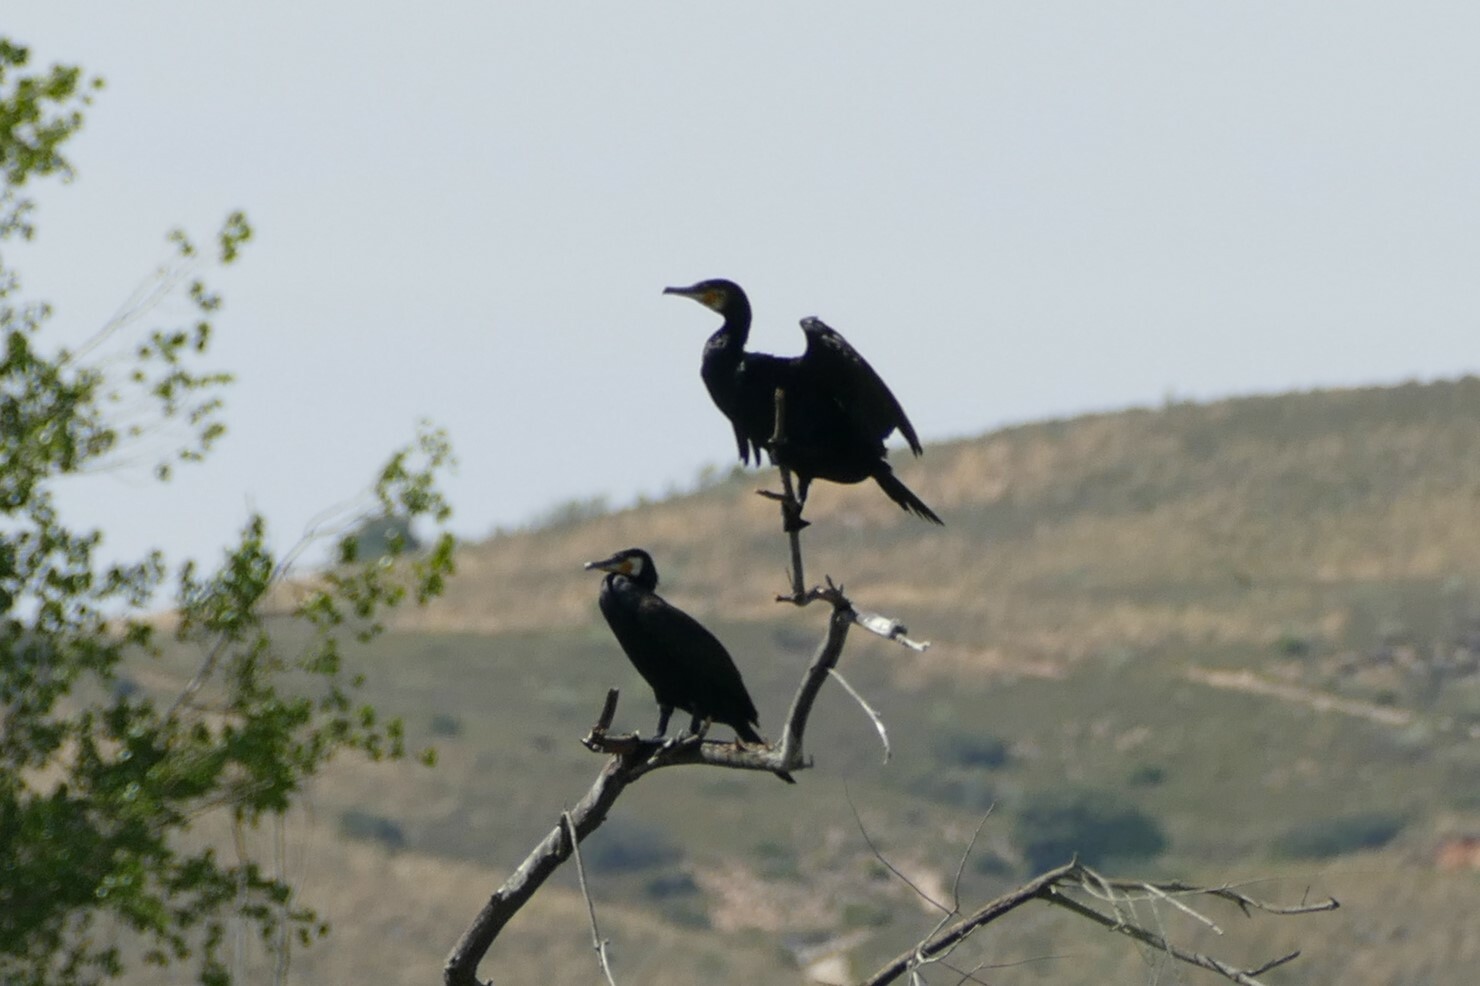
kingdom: Animalia
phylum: Chordata
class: Aves
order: Suliformes
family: Phalacrocoracidae
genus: Phalacrocorax
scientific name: Phalacrocorax carbo
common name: Great cormorant
